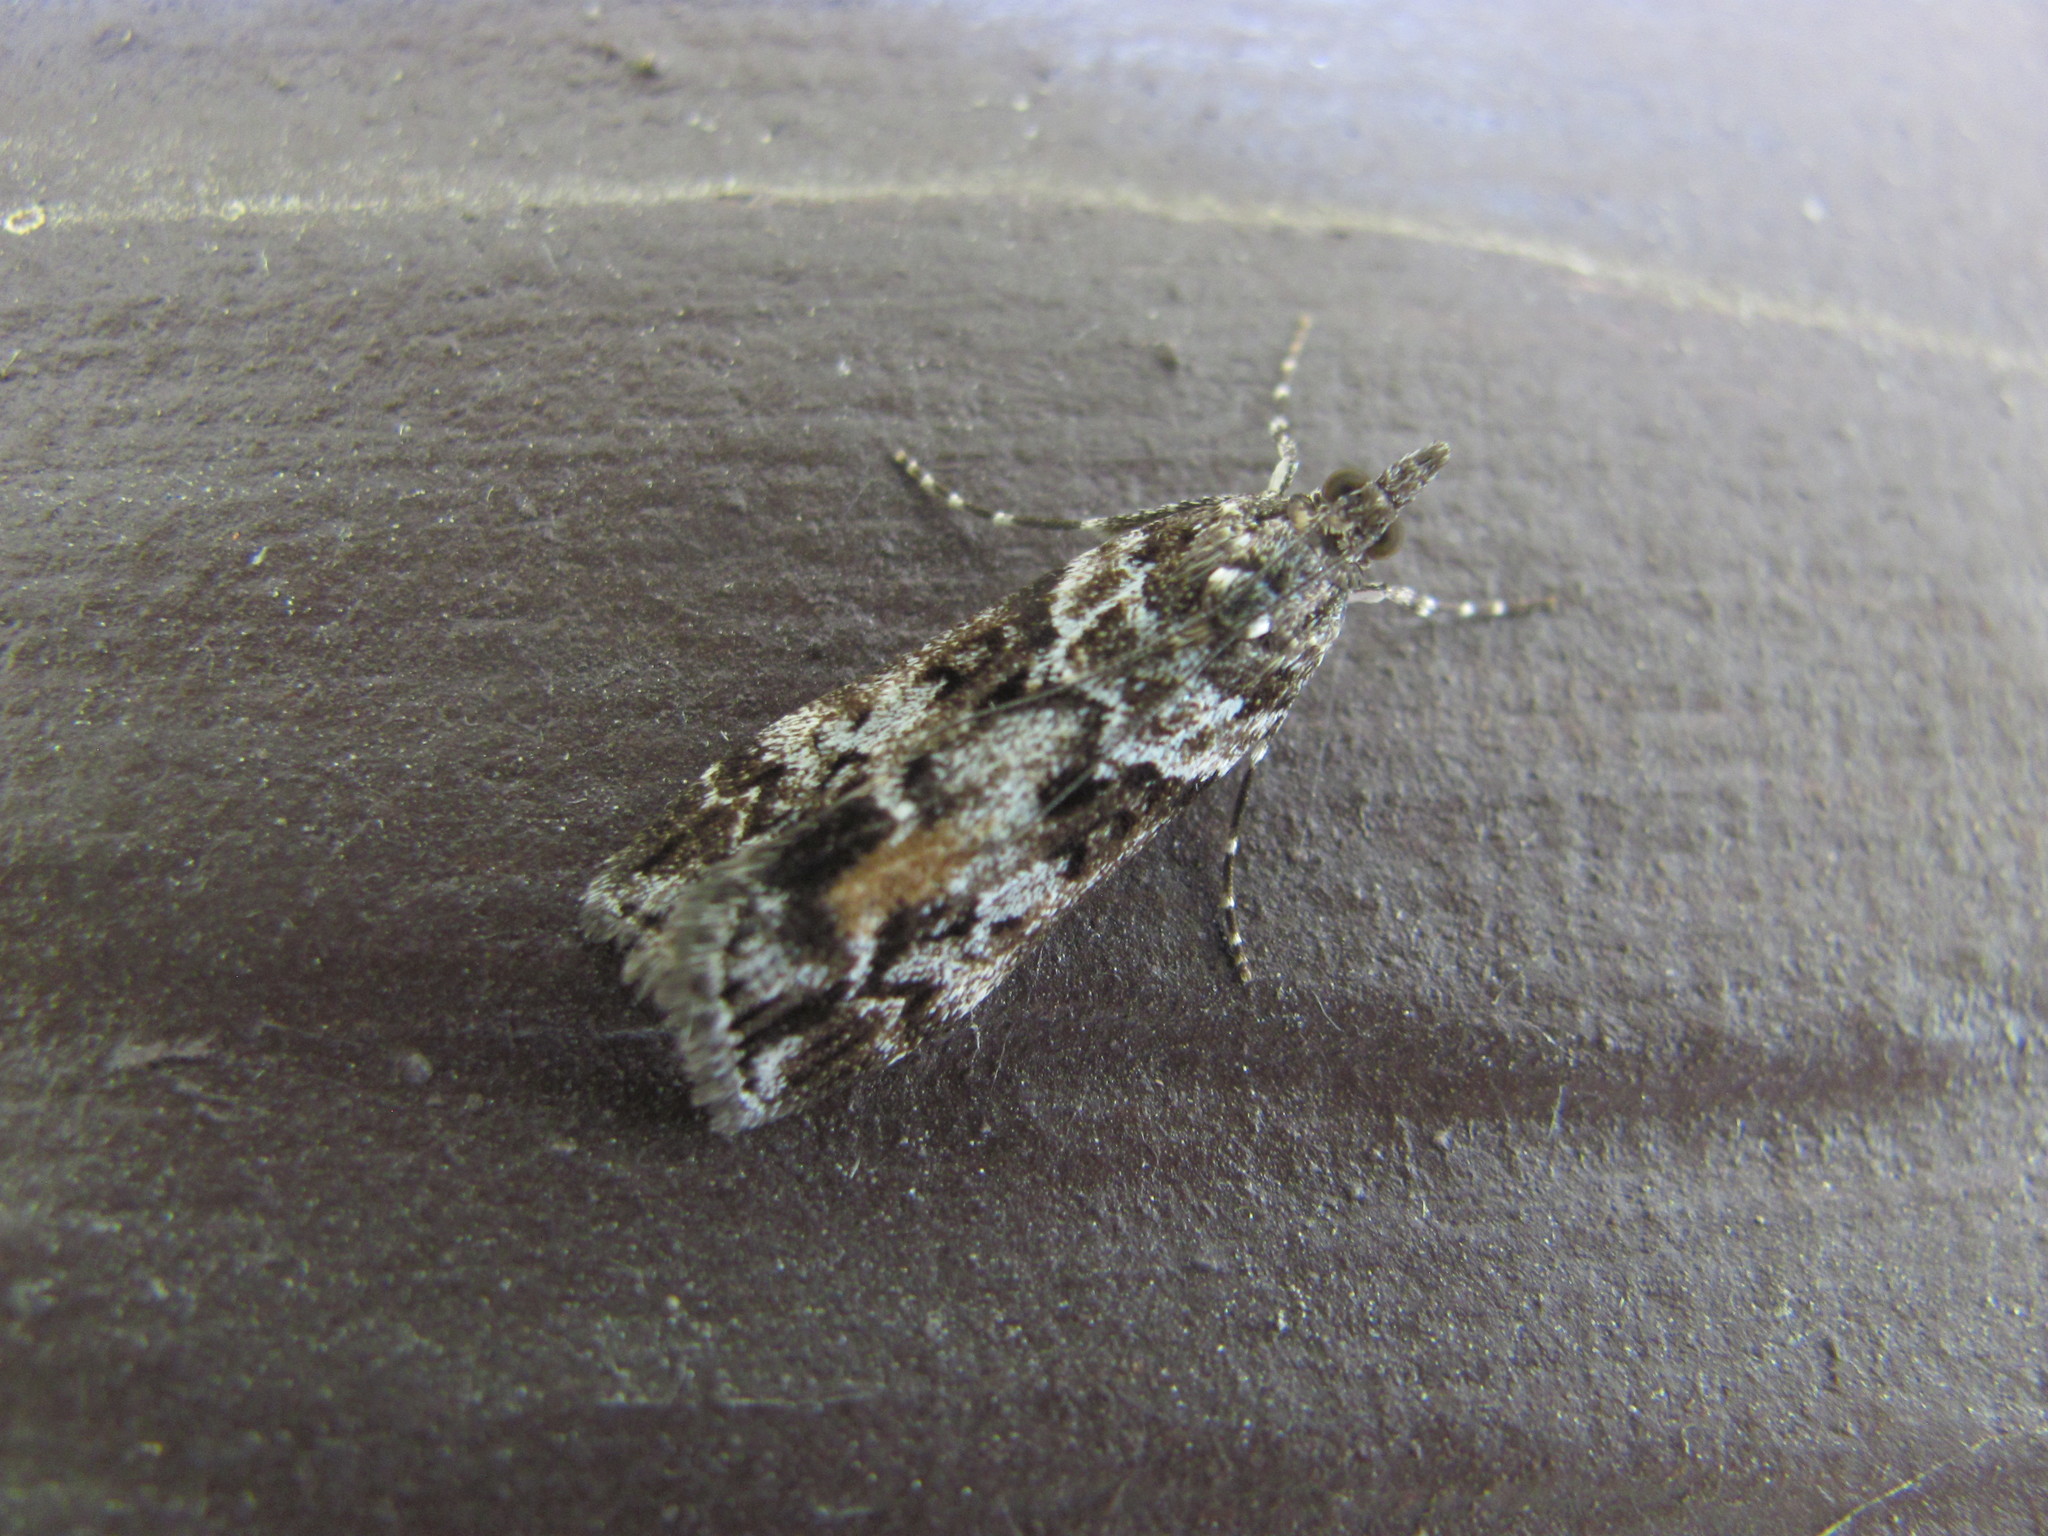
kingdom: Animalia
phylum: Arthropoda
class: Insecta
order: Lepidoptera
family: Crambidae
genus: Eudonia
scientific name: Eudonia submarginalis
